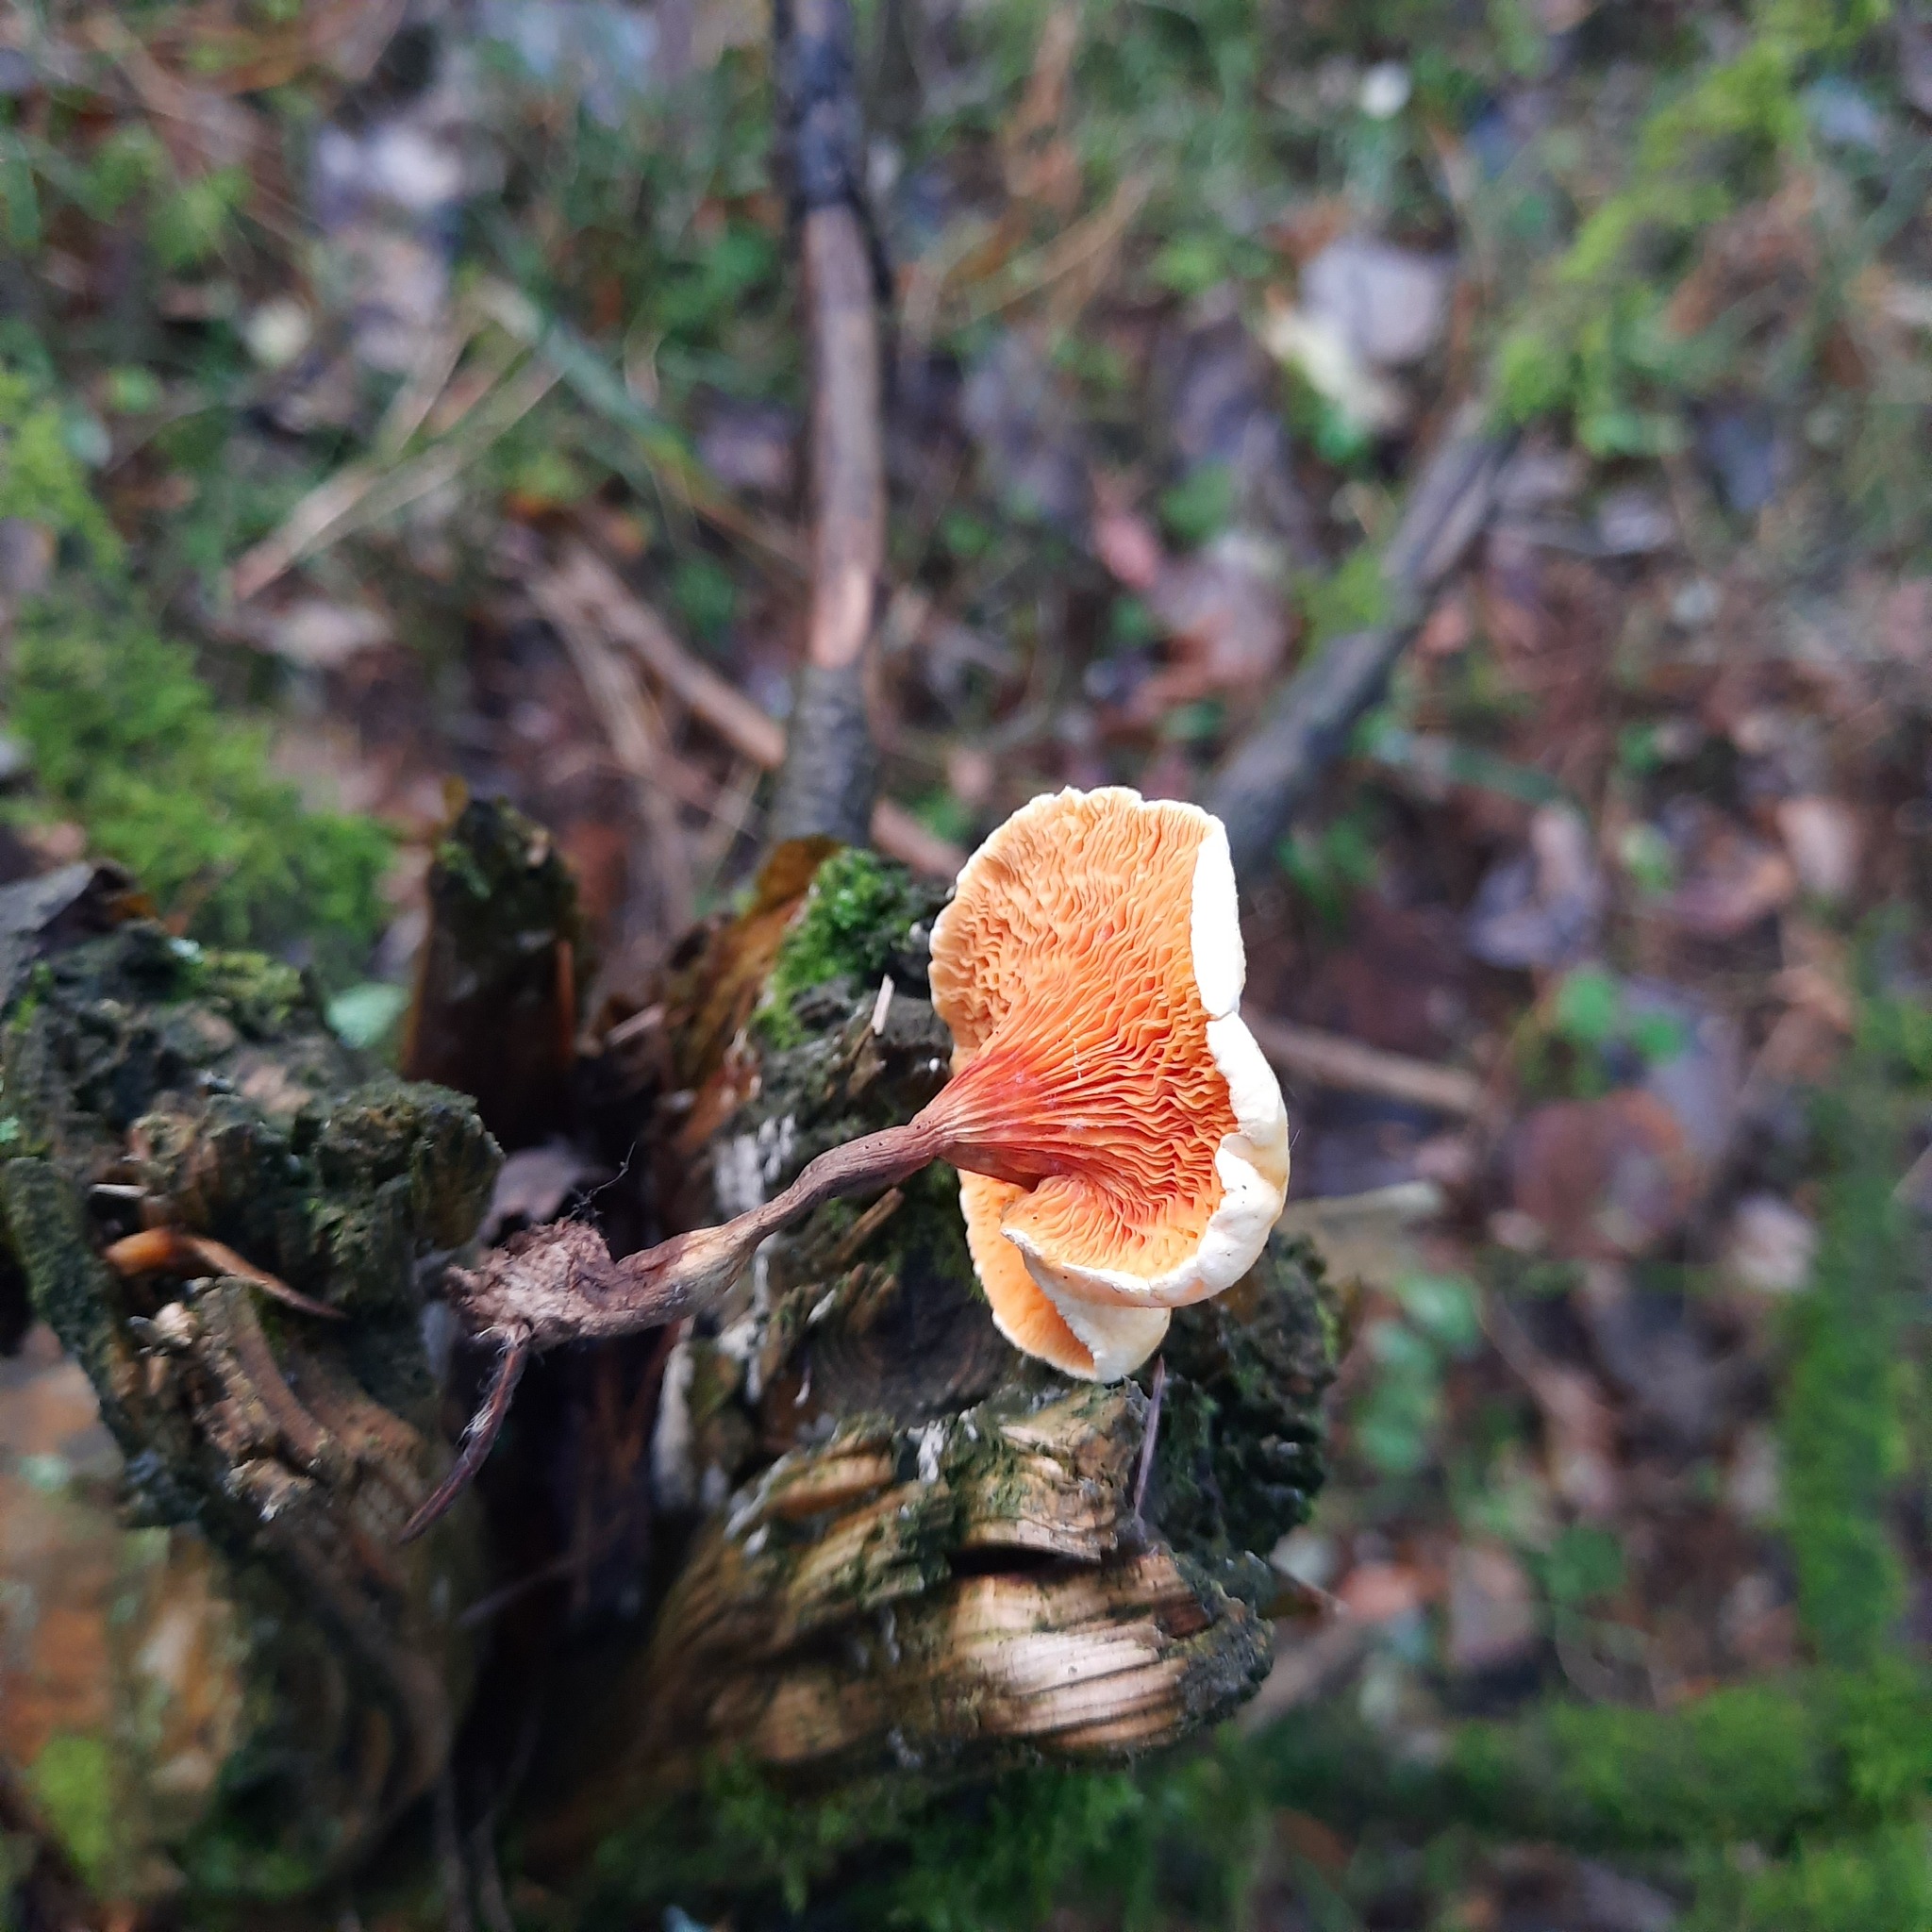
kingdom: Fungi
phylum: Basidiomycota
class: Agaricomycetes
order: Boletales
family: Hygrophoropsidaceae
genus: Hygrophoropsis
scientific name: Hygrophoropsis aurantiaca
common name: False chanterelle
